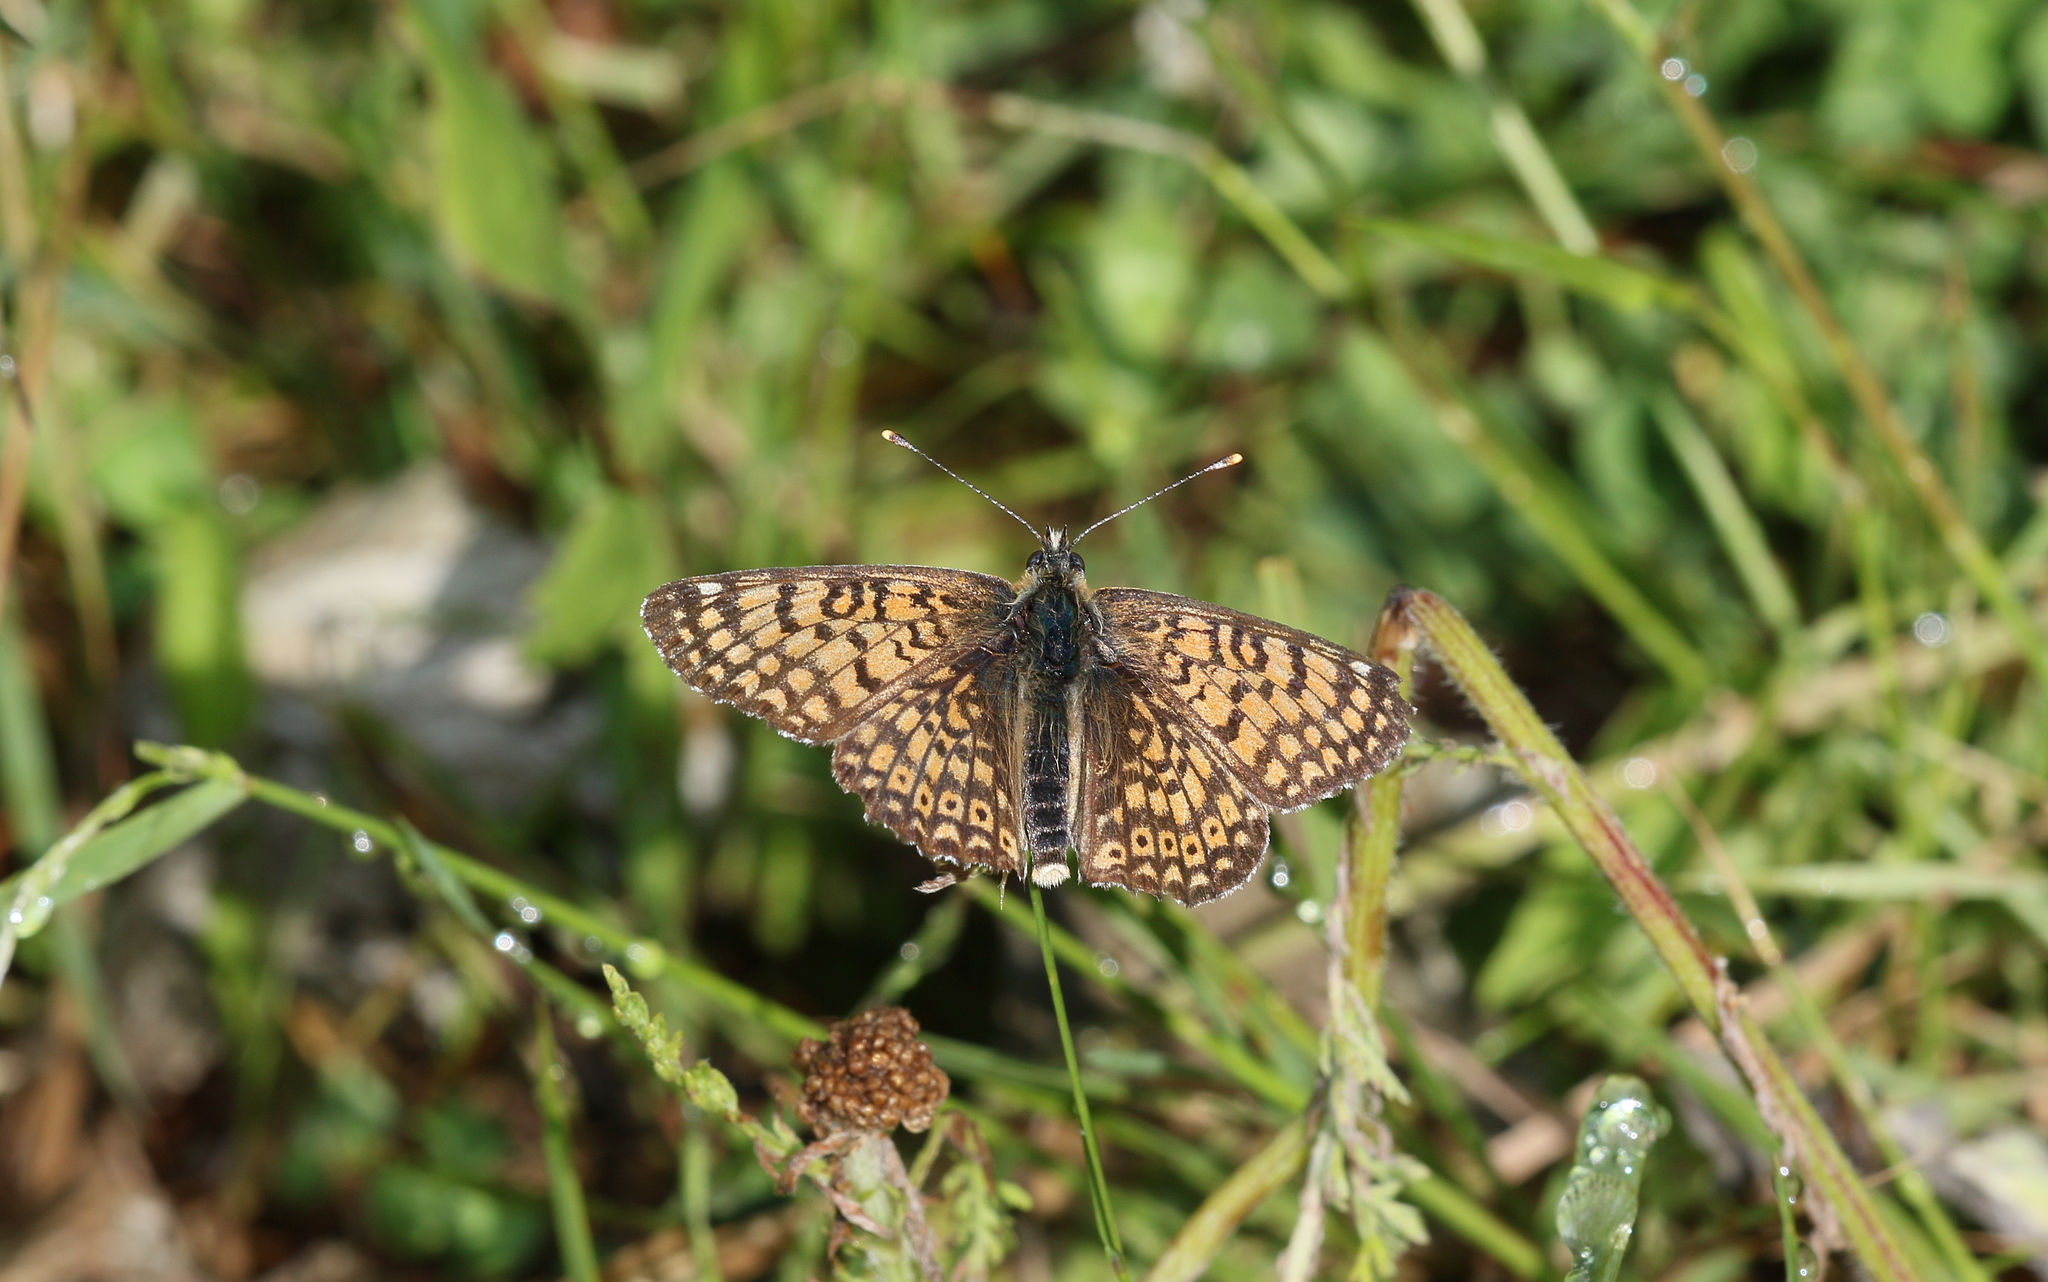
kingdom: Animalia
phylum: Arthropoda
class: Insecta
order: Lepidoptera
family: Nymphalidae
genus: Melitaea
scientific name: Melitaea cinxia
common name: Glanville fritillary
